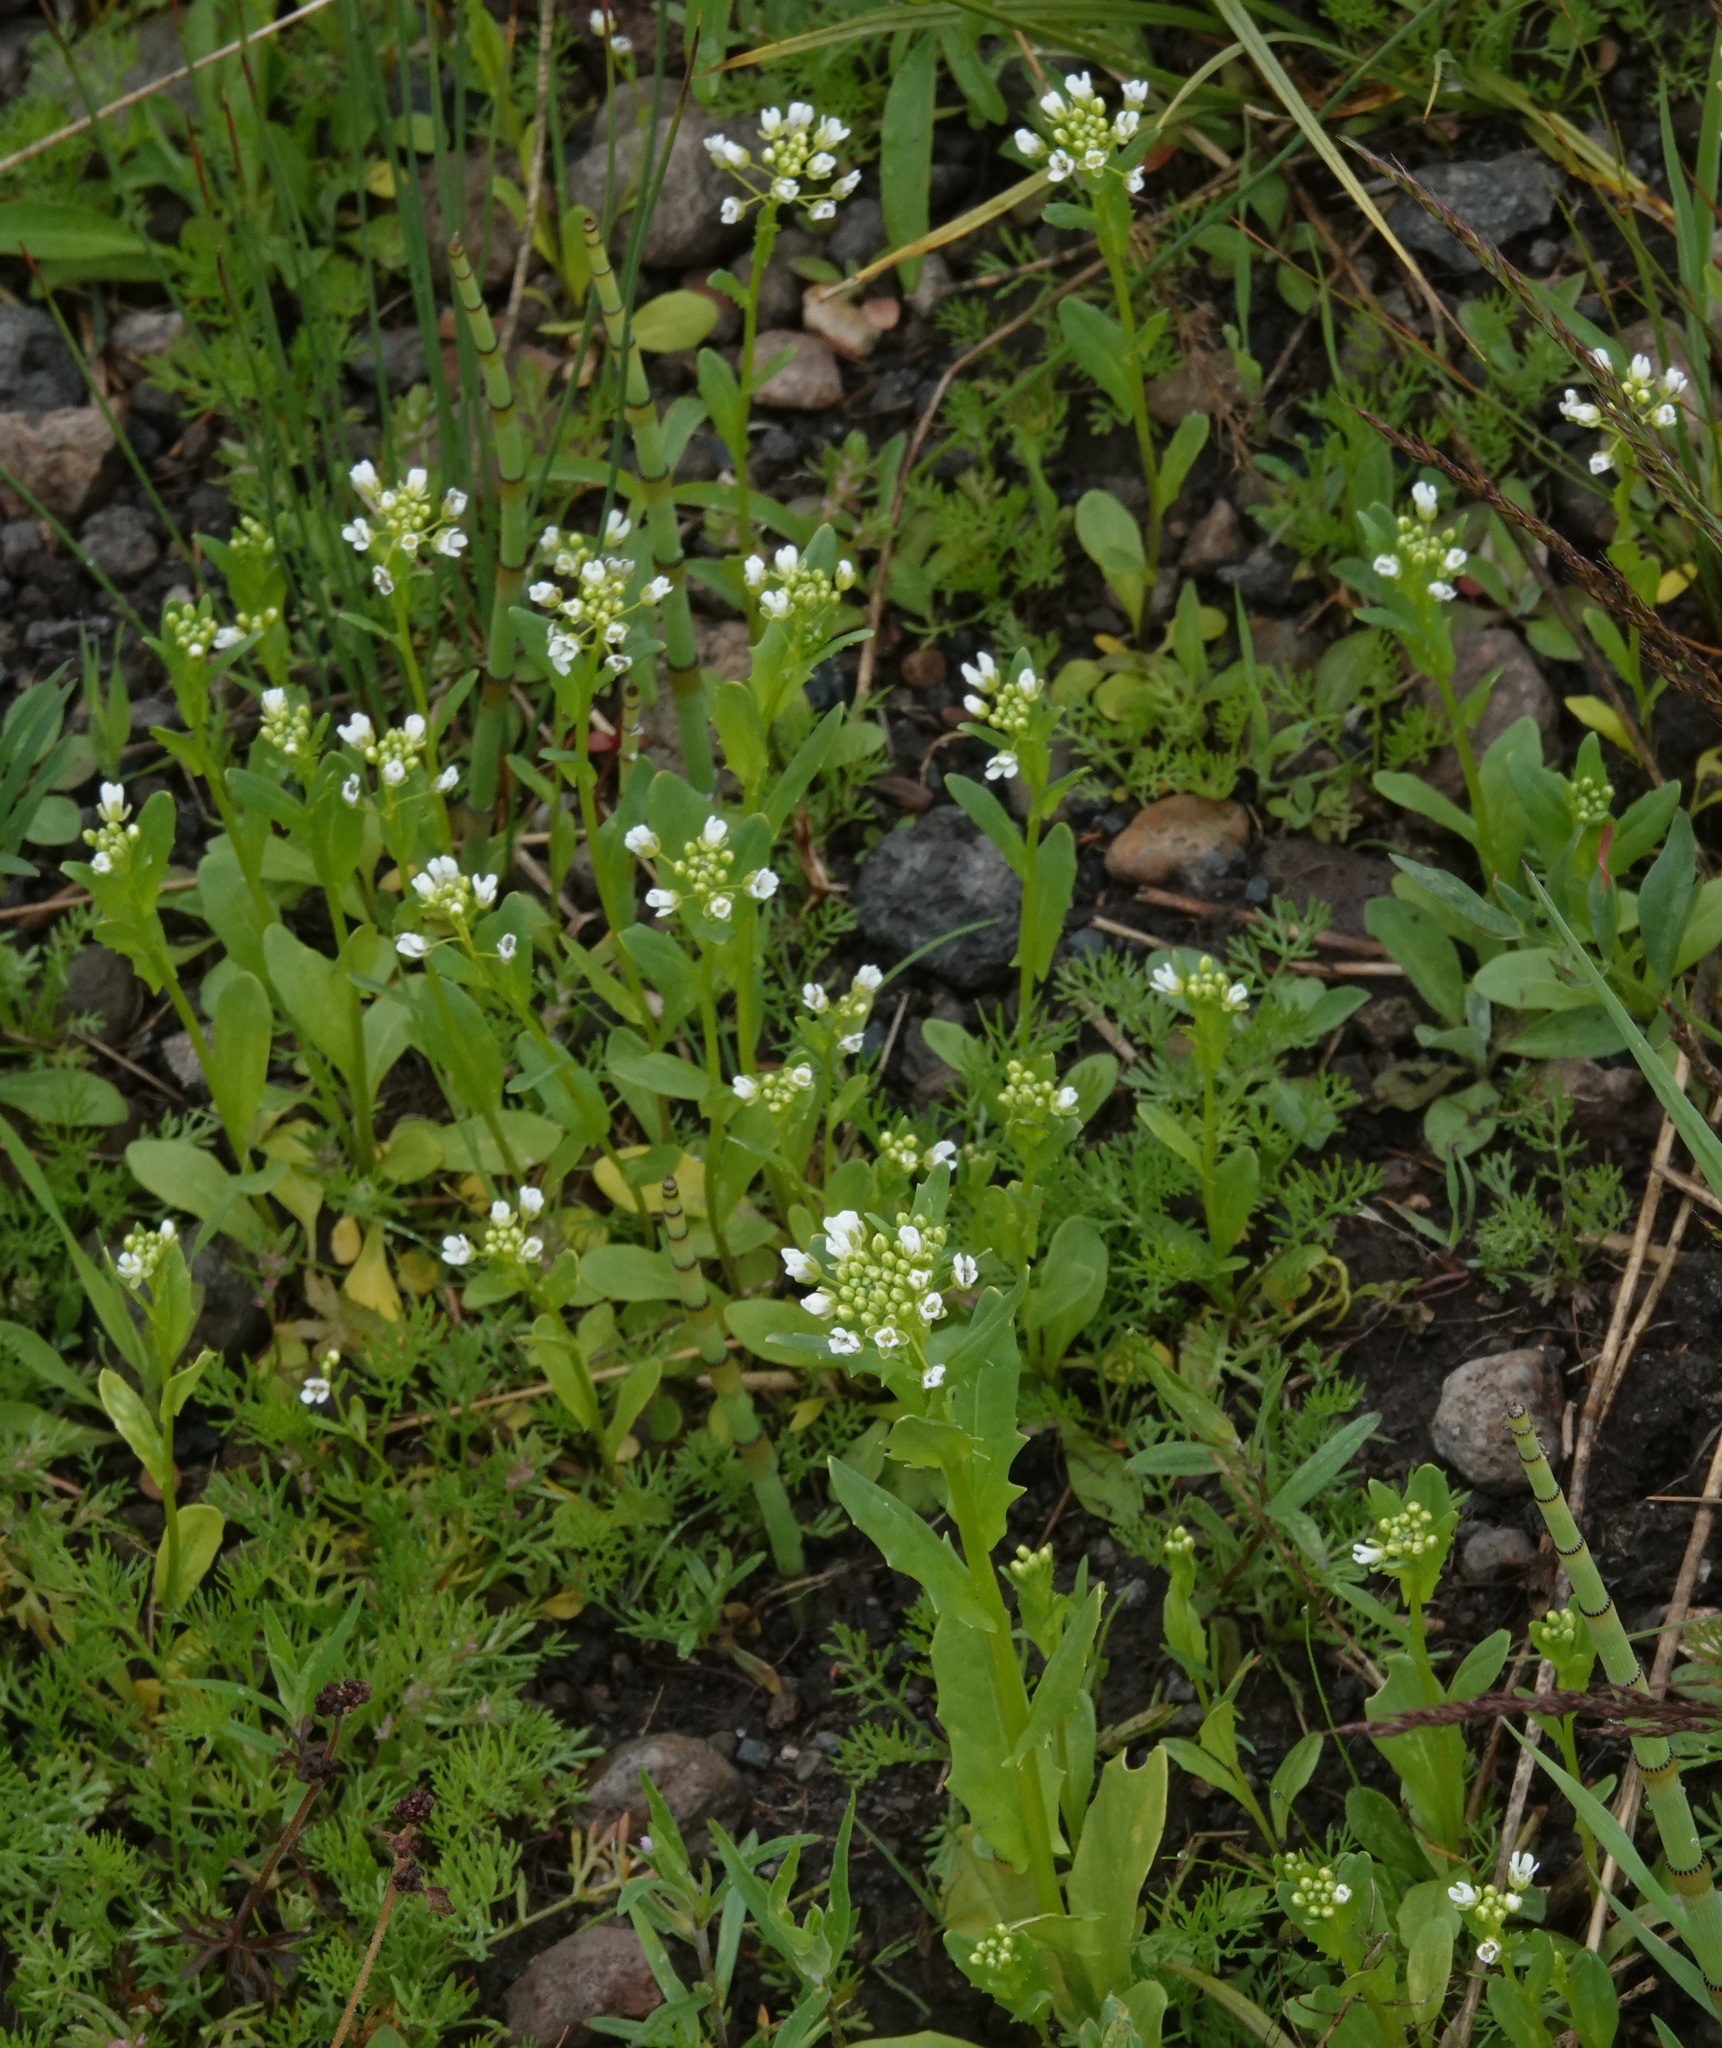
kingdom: Plantae
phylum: Tracheophyta
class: Magnoliopsida
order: Brassicales
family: Brassicaceae
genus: Thlaspi
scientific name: Thlaspi arvense
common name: Field pennycress
